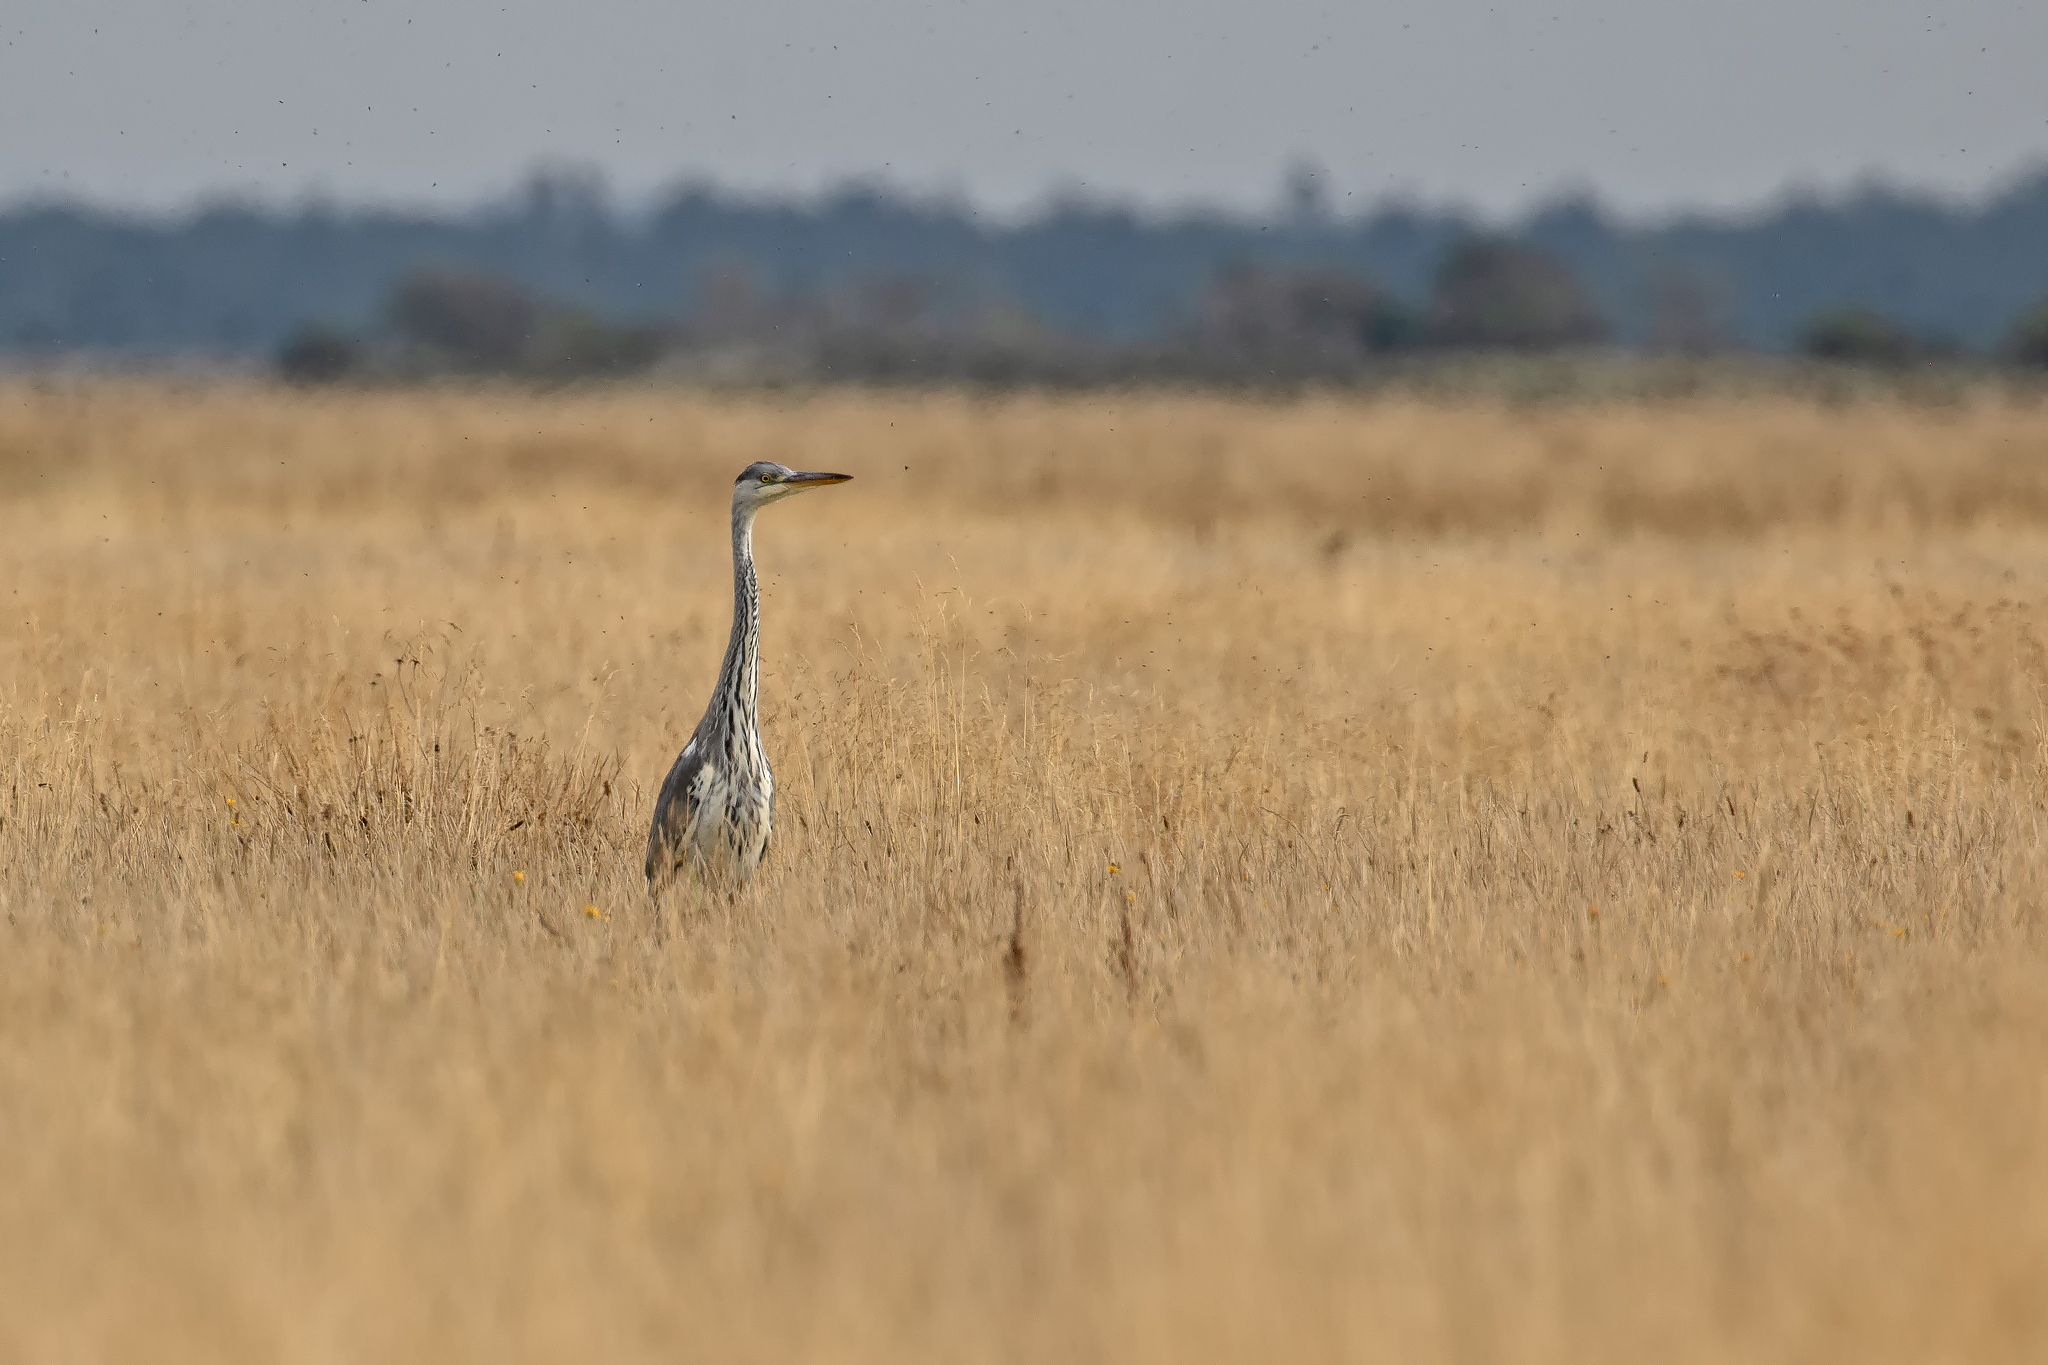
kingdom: Animalia
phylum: Chordata
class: Aves
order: Pelecaniformes
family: Ardeidae
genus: Ardea
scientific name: Ardea cinerea
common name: Grey heron
